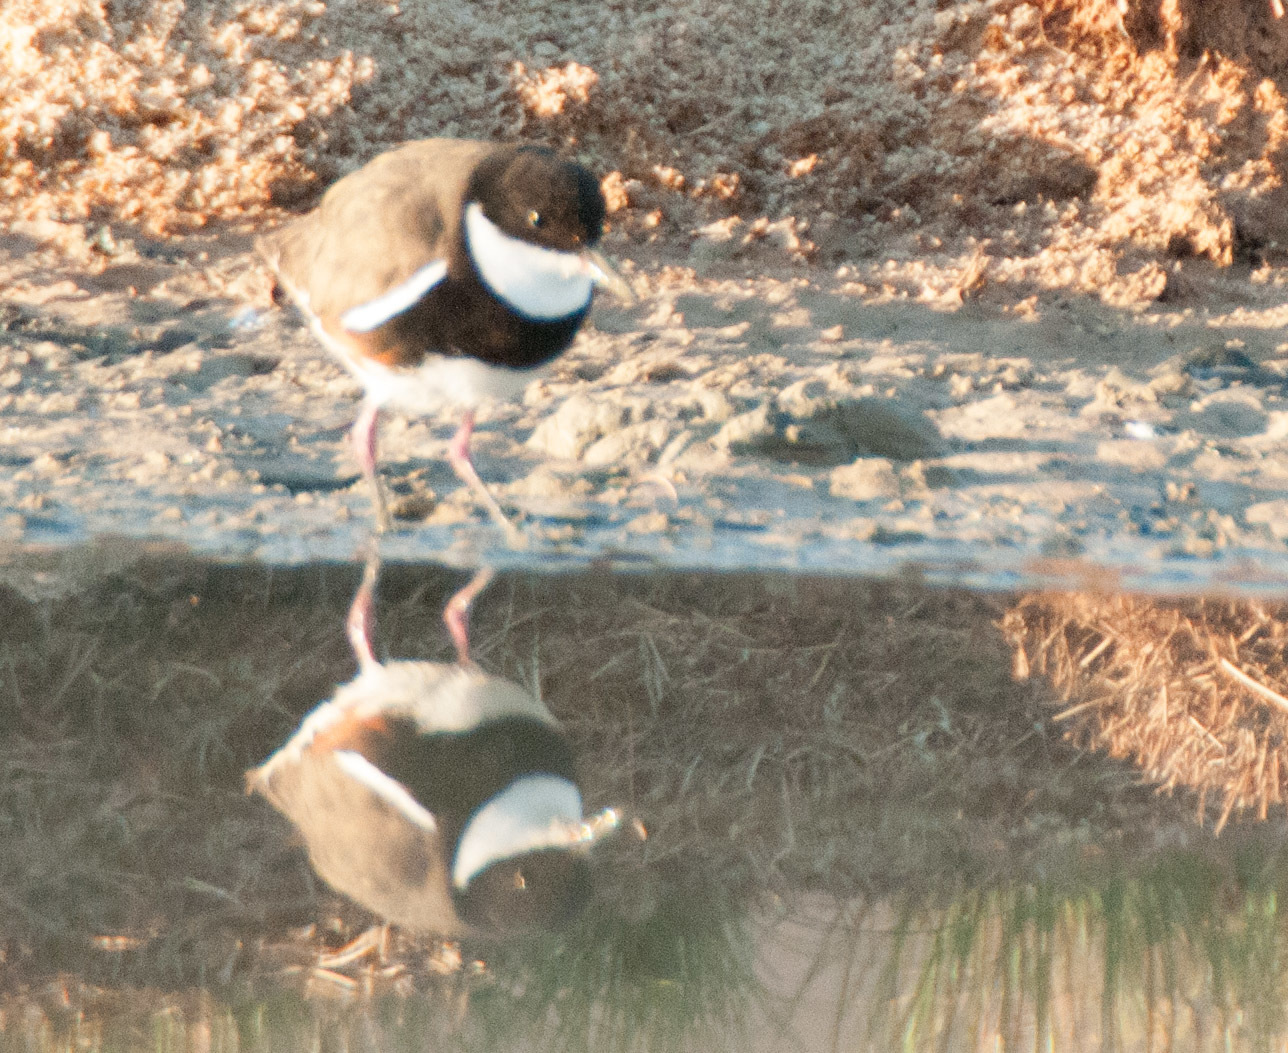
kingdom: Animalia
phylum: Chordata
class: Aves
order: Charadriiformes
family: Charadriidae
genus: Erythrogonys
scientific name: Erythrogonys cinctus
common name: Red-kneed dotterel
